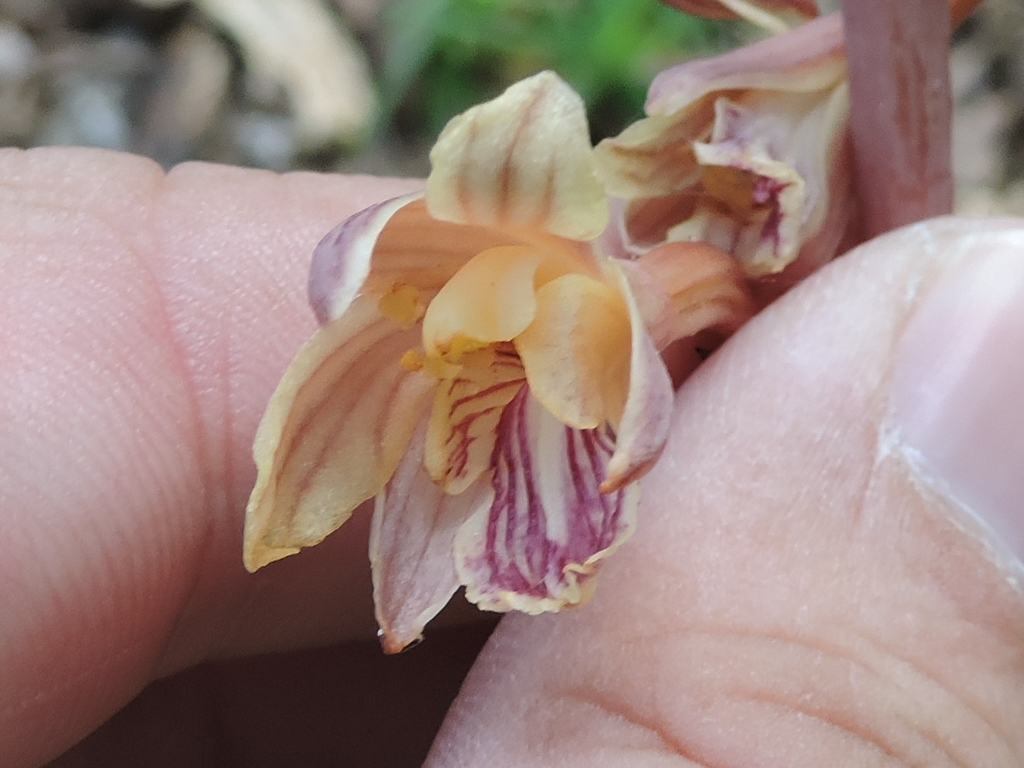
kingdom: Plantae
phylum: Tracheophyta
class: Liliopsida
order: Asparagales
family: Orchidaceae
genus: Bletia
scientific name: Bletia arizonica
